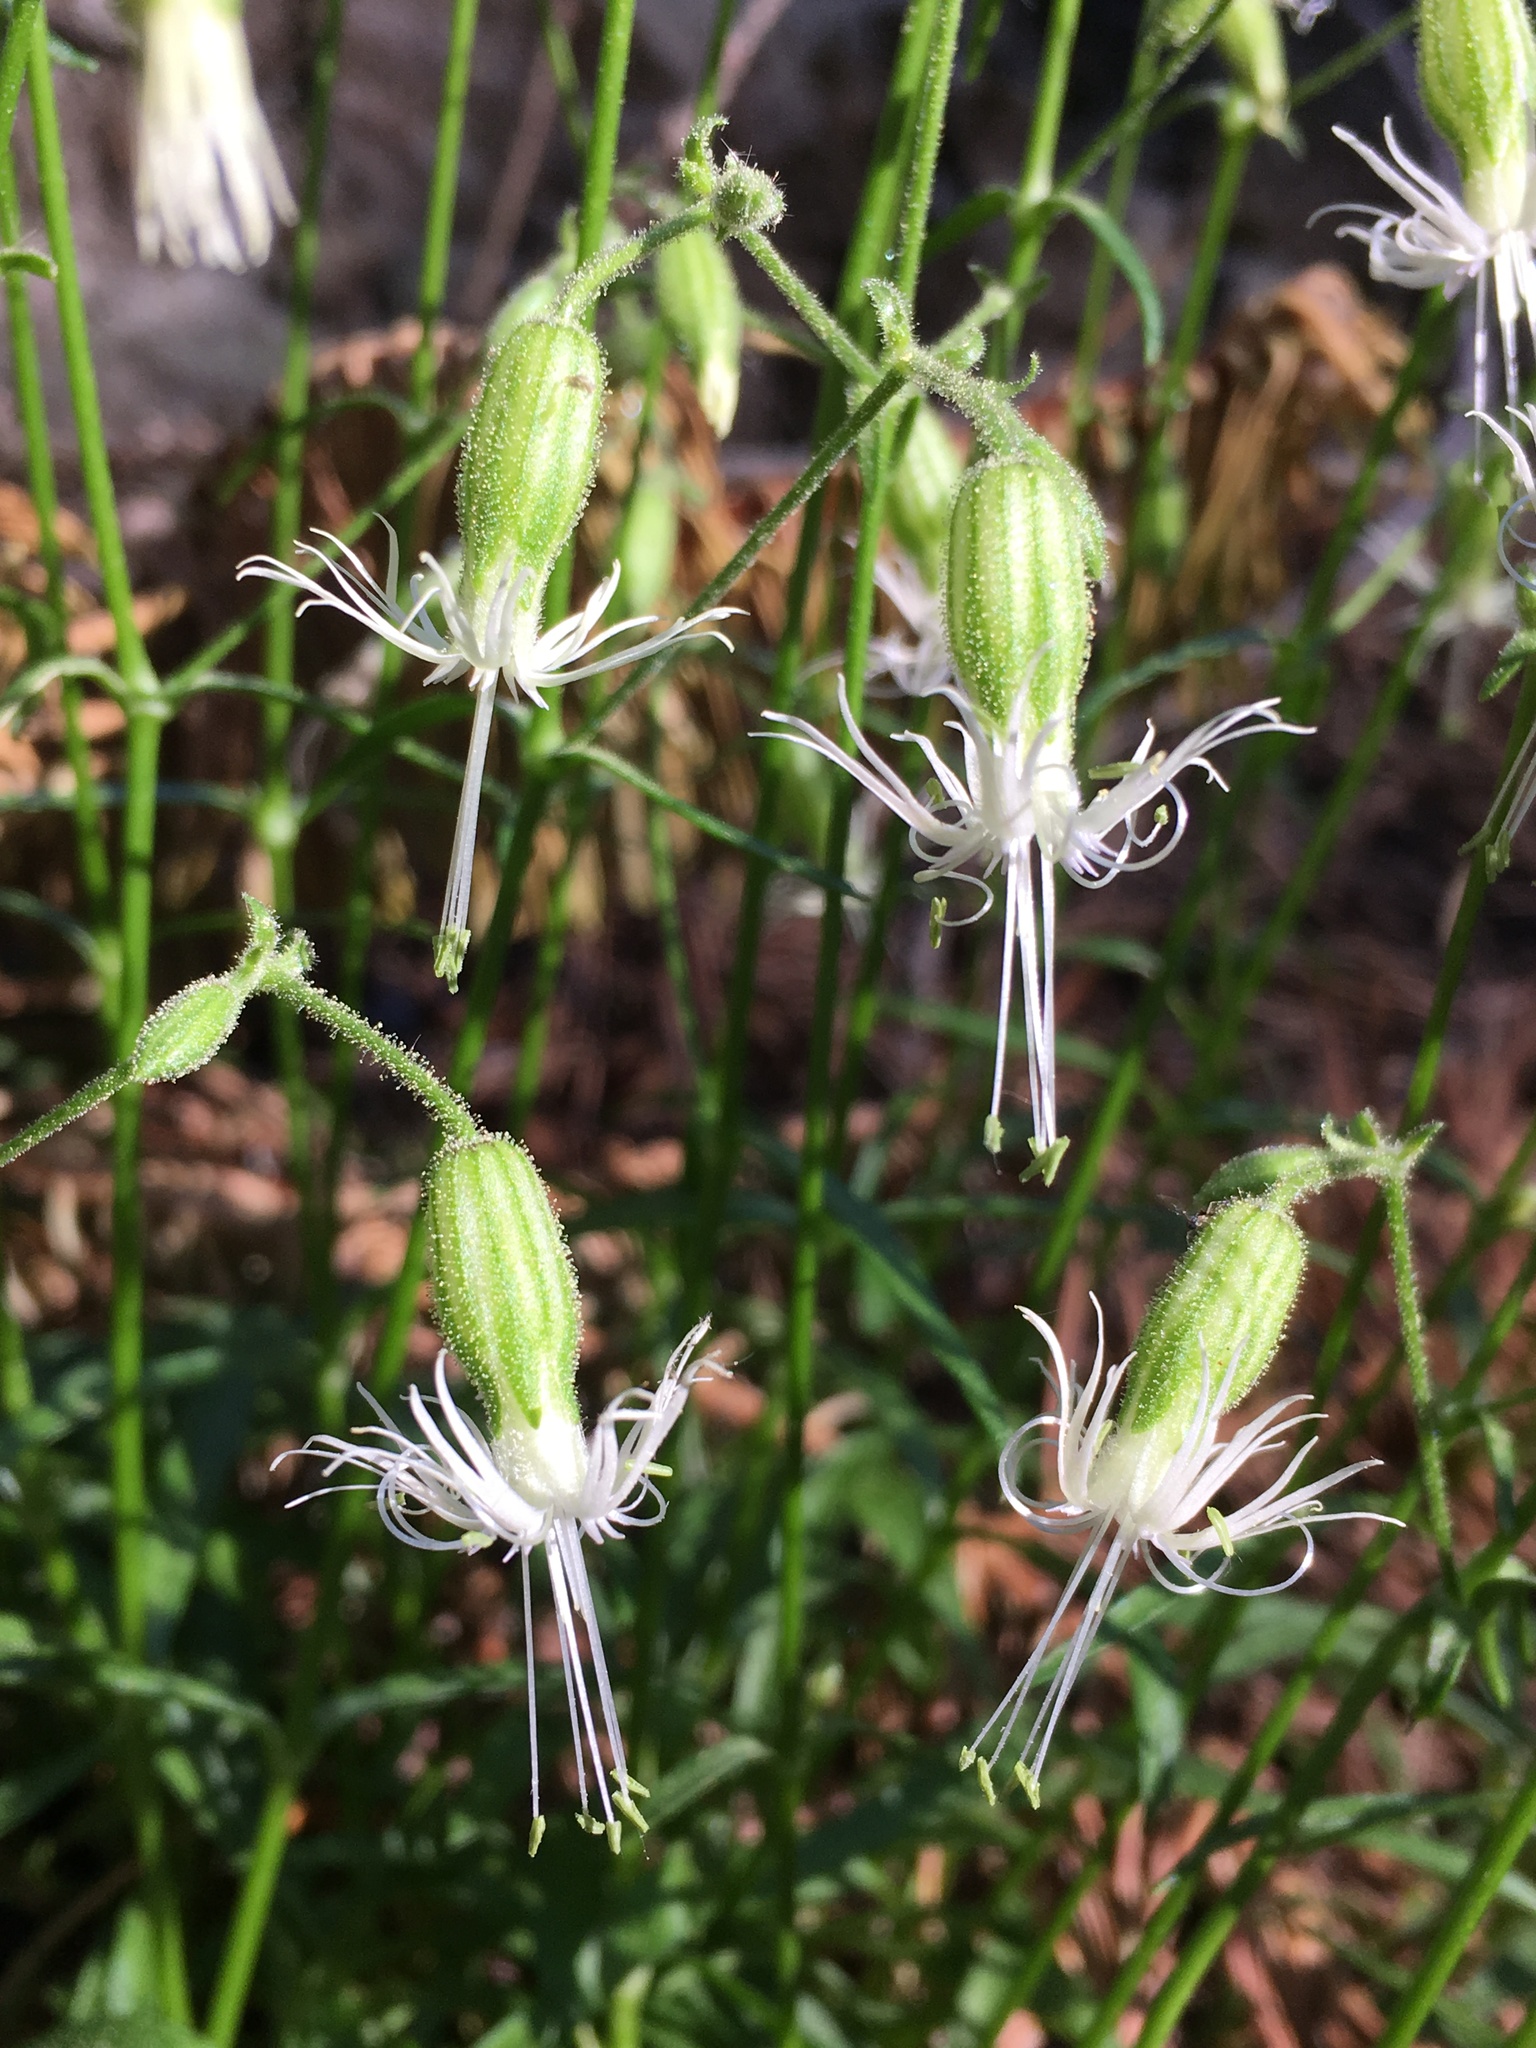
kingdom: Plantae
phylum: Tracheophyta
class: Magnoliopsida
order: Caryophyllales
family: Caryophyllaceae
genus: Silene
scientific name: Silene lemmonii
